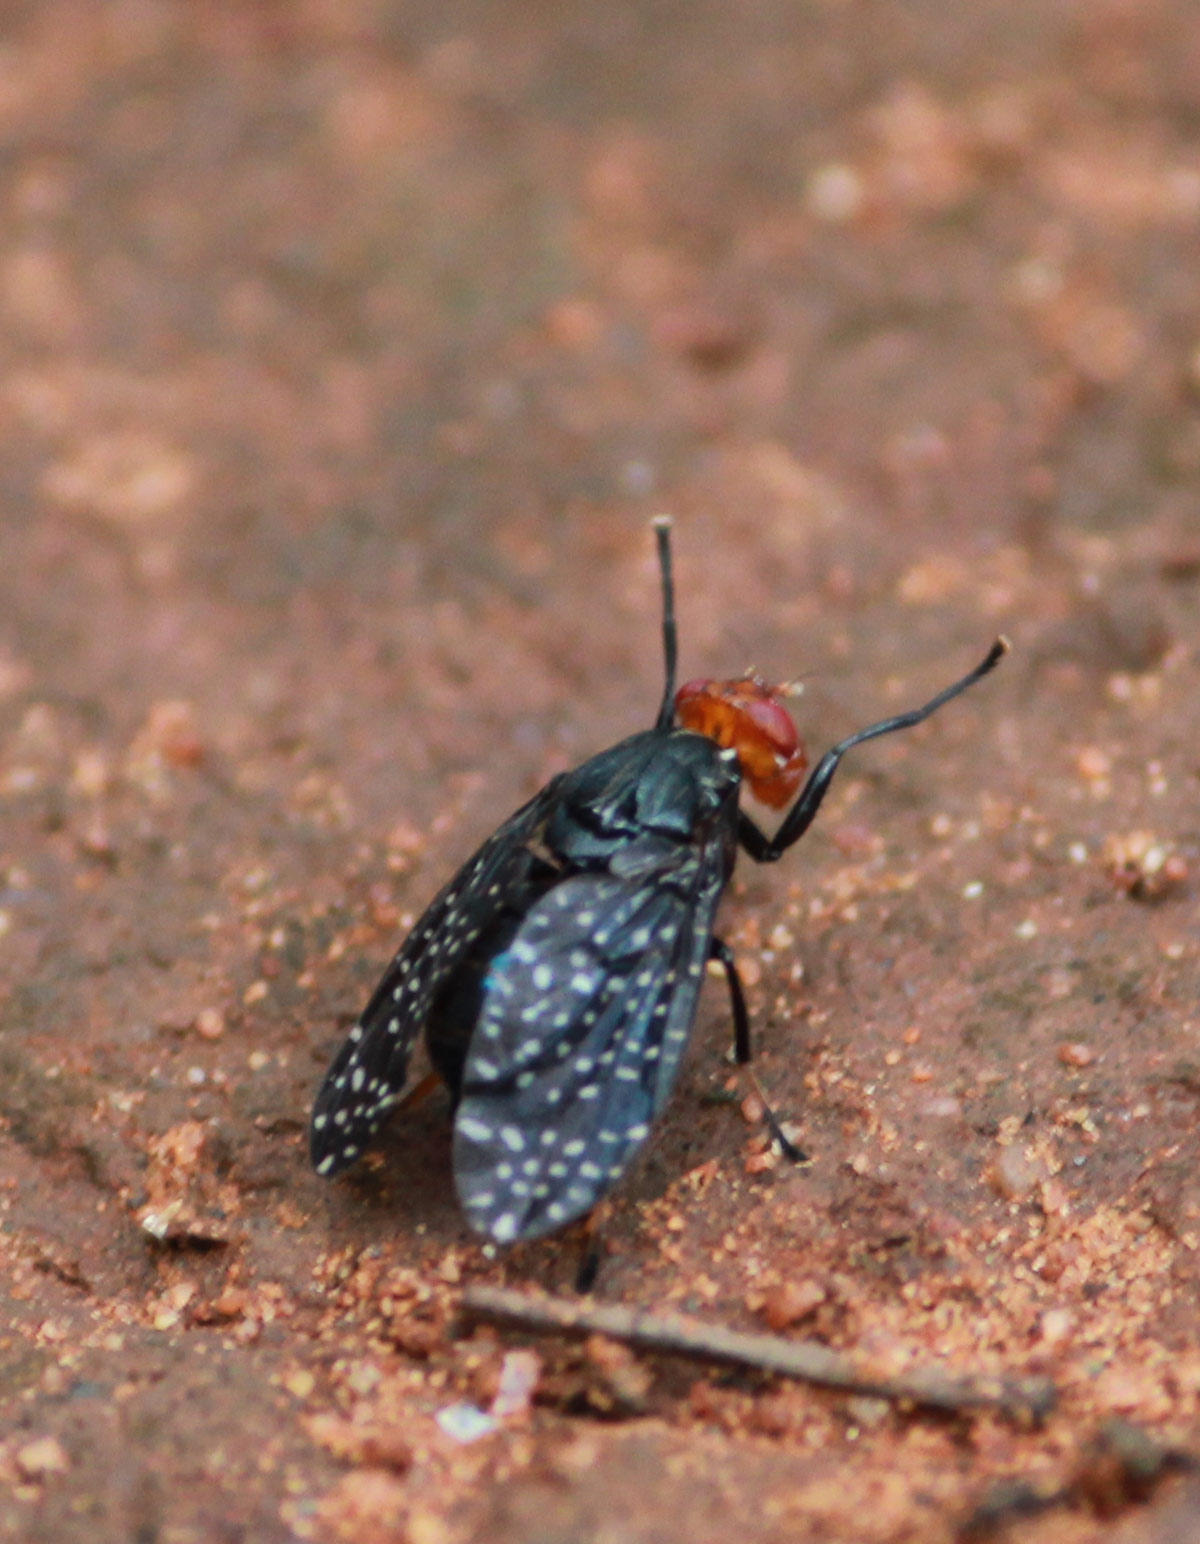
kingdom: Animalia
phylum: Arthropoda
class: Insecta
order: Diptera
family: Platystomatidae
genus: Peltacanthina
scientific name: Peltacanthina mythodes
